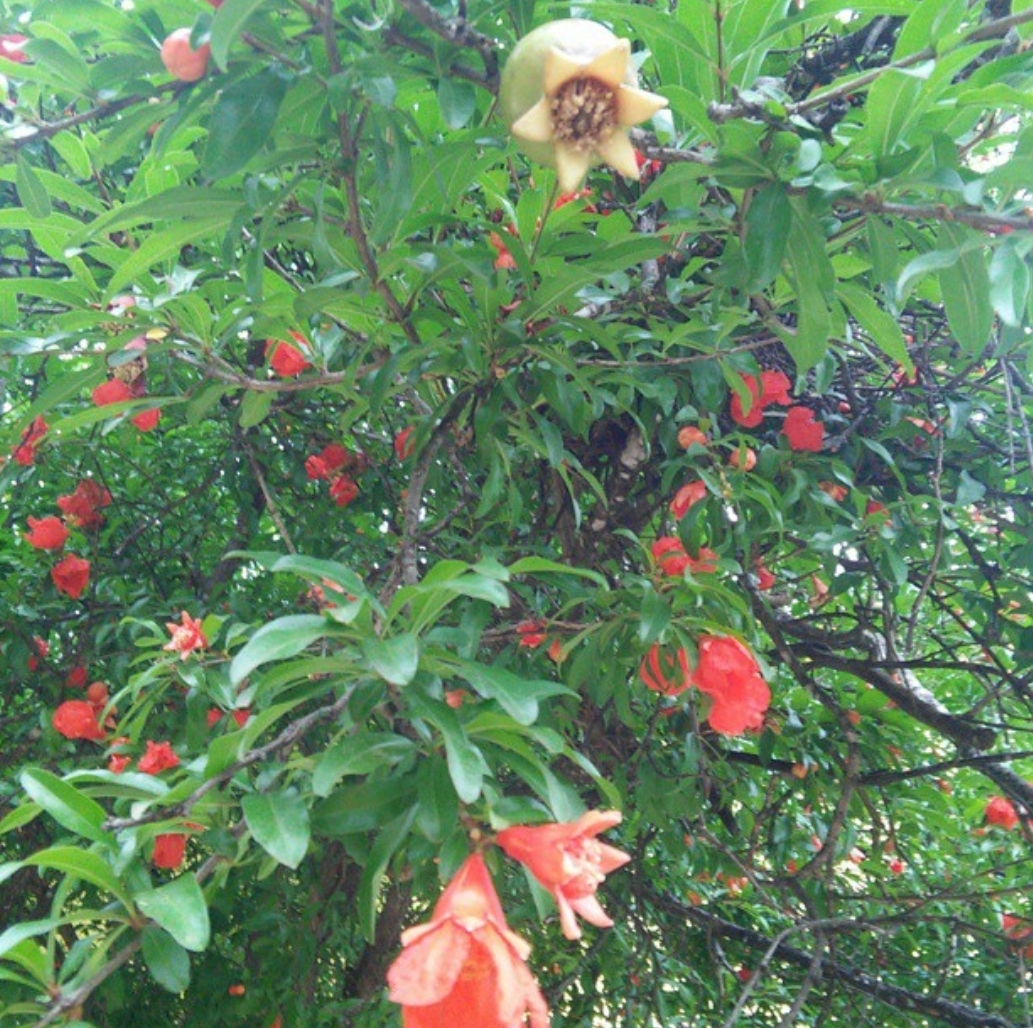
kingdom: Plantae
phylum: Tracheophyta
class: Magnoliopsida
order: Myrtales
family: Lythraceae
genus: Punica
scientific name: Punica granatum
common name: Pomegranate
